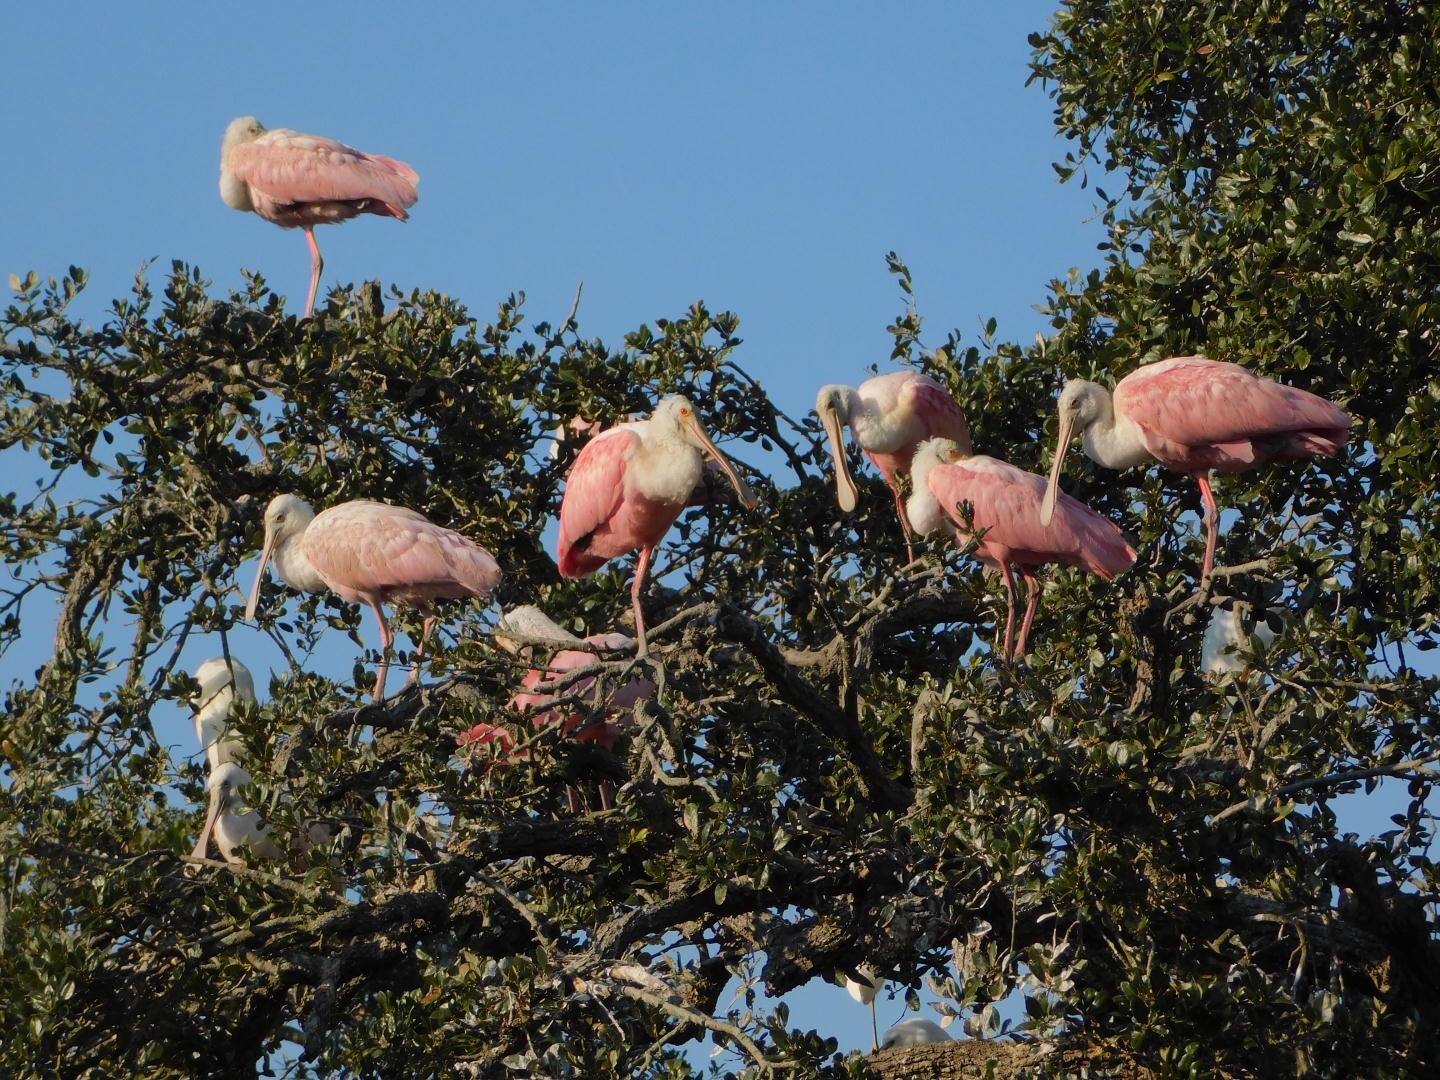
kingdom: Animalia
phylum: Chordata
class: Aves
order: Pelecaniformes
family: Threskiornithidae
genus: Platalea
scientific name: Platalea ajaja
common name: Roseate spoonbill
